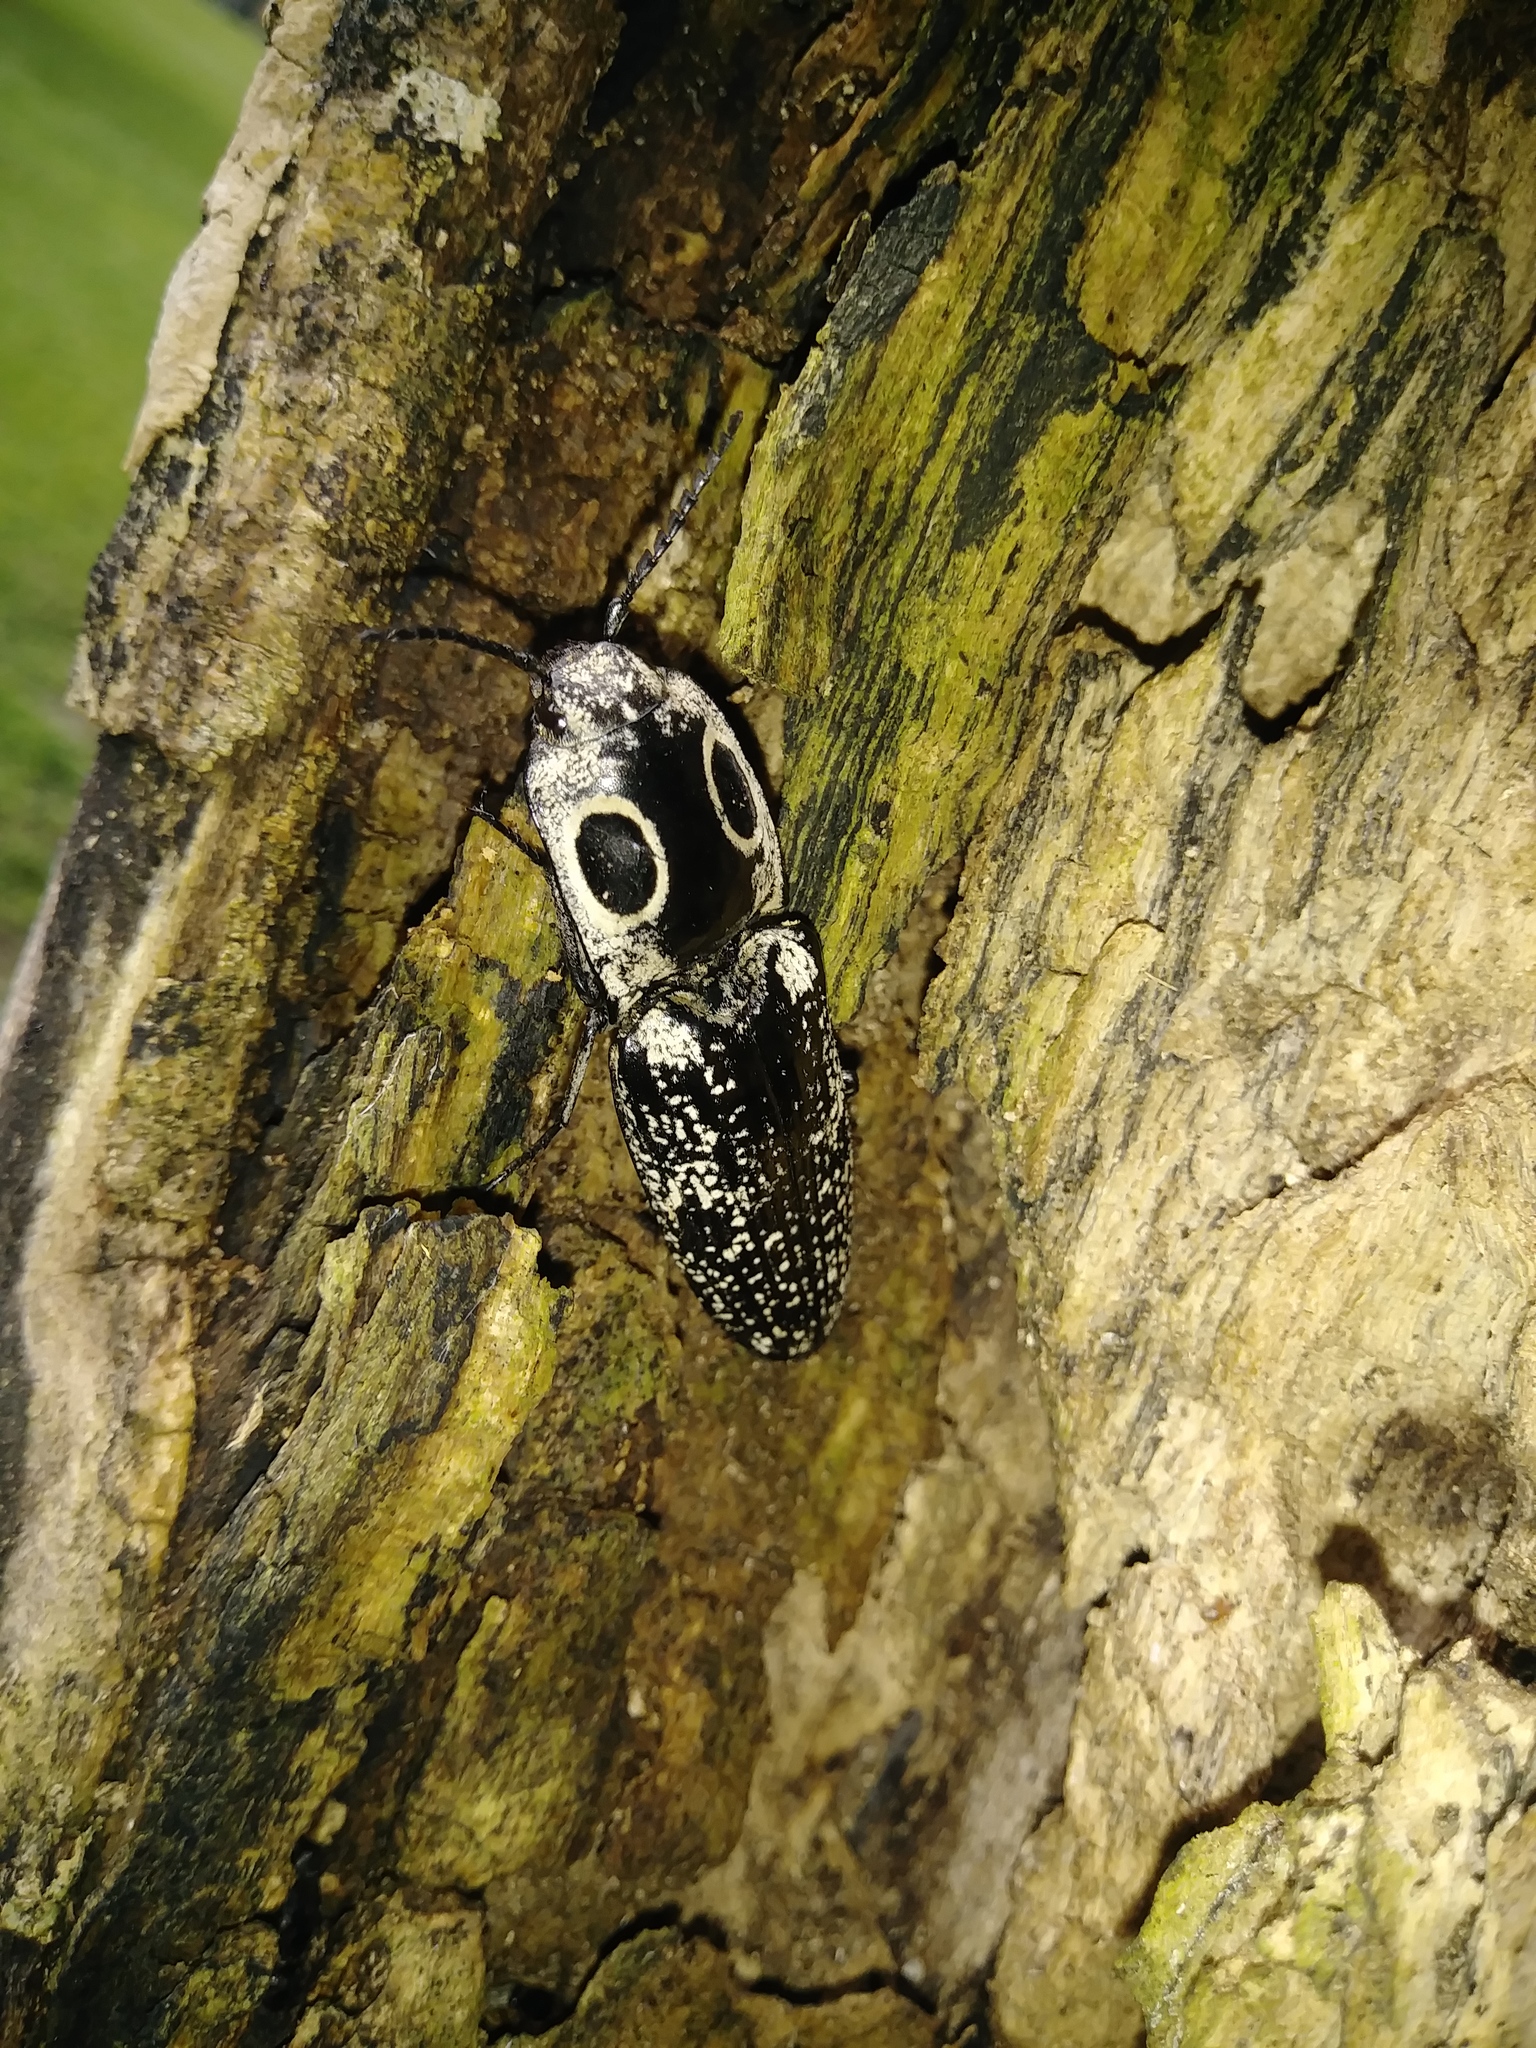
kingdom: Animalia
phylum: Arthropoda
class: Insecta
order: Coleoptera
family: Elateridae
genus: Alaus
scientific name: Alaus oculatus
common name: Eastern eyed click beetle
